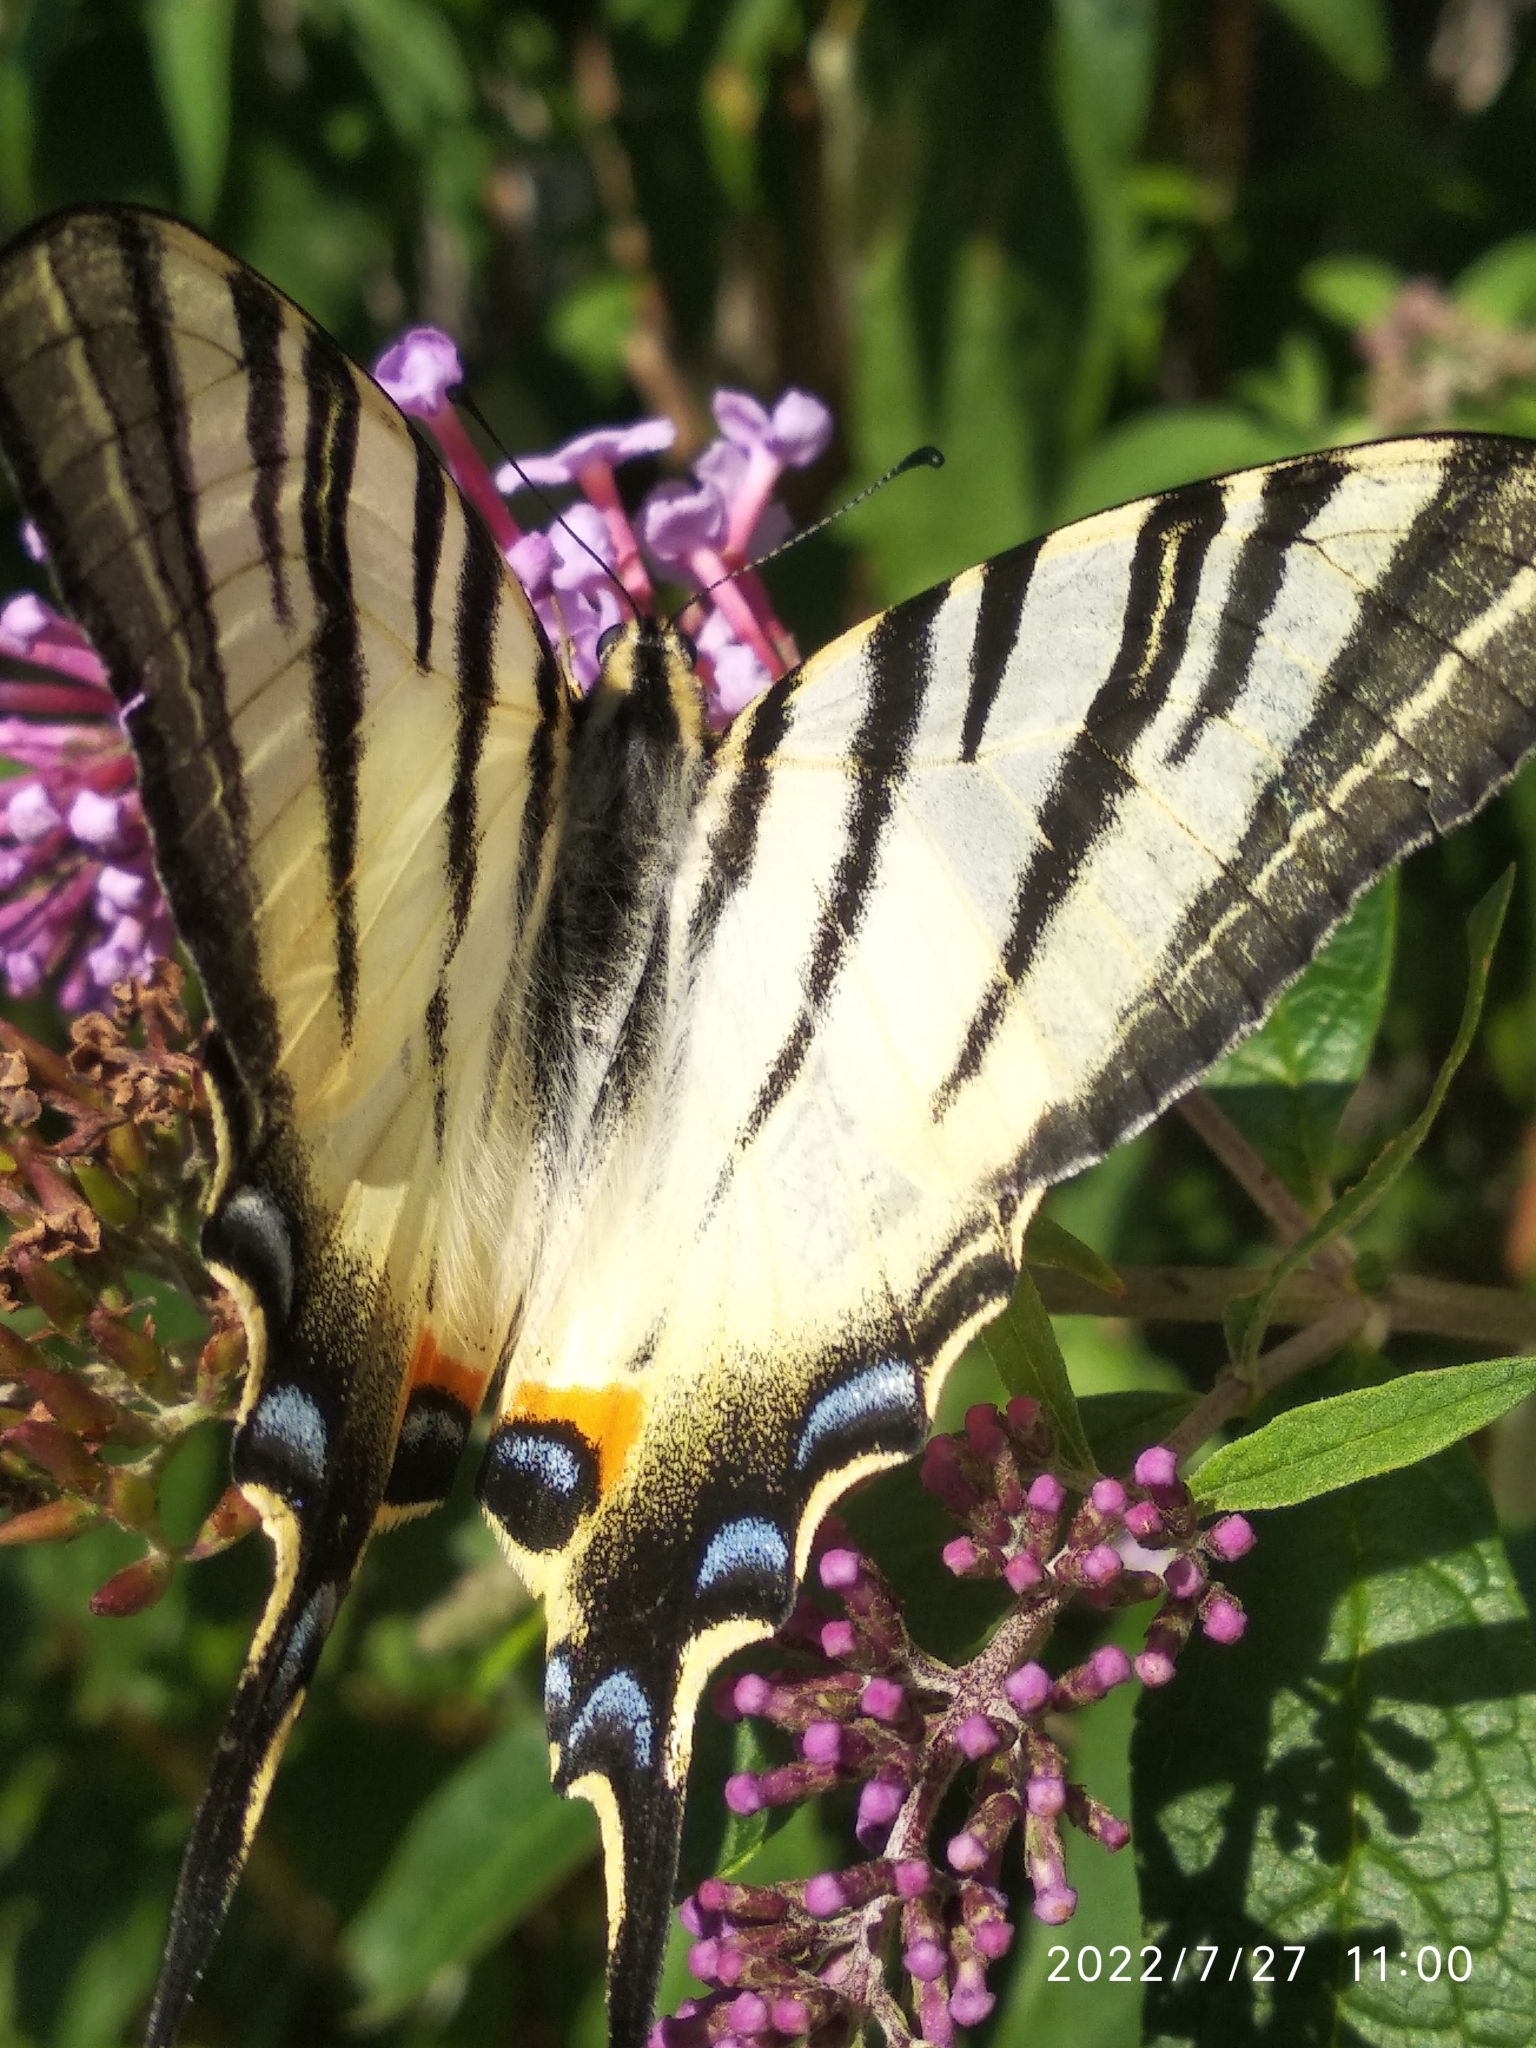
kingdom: Animalia
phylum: Arthropoda
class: Insecta
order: Lepidoptera
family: Papilionidae
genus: Iphiclides
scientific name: Iphiclides podalirius
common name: Scarce swallowtail
